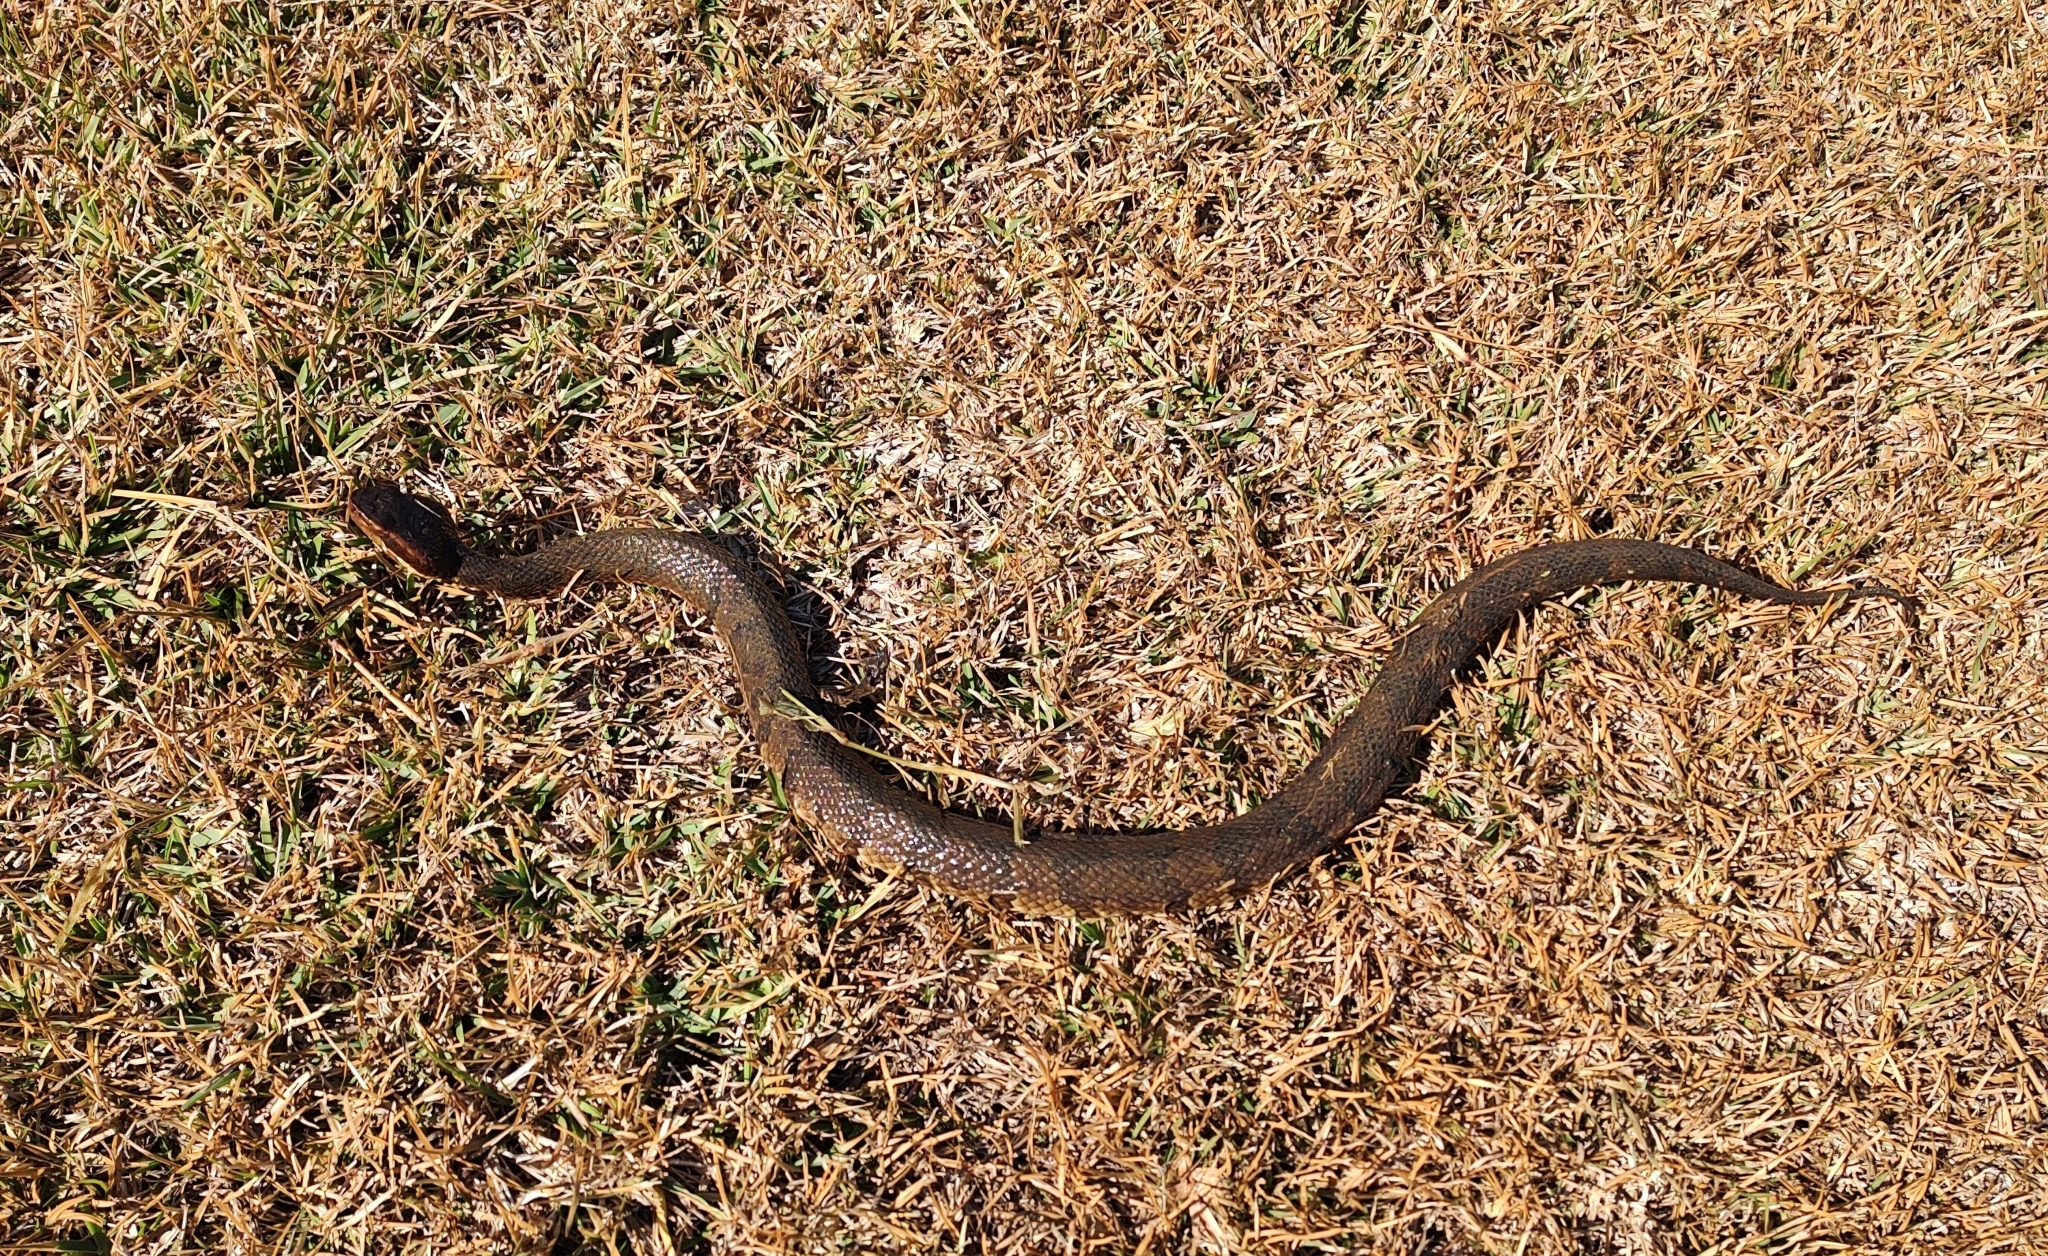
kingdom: Animalia
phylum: Chordata
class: Squamata
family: Viperidae
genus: Agkistrodon
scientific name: Agkistrodon piscivorus
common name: Cottonmouth
